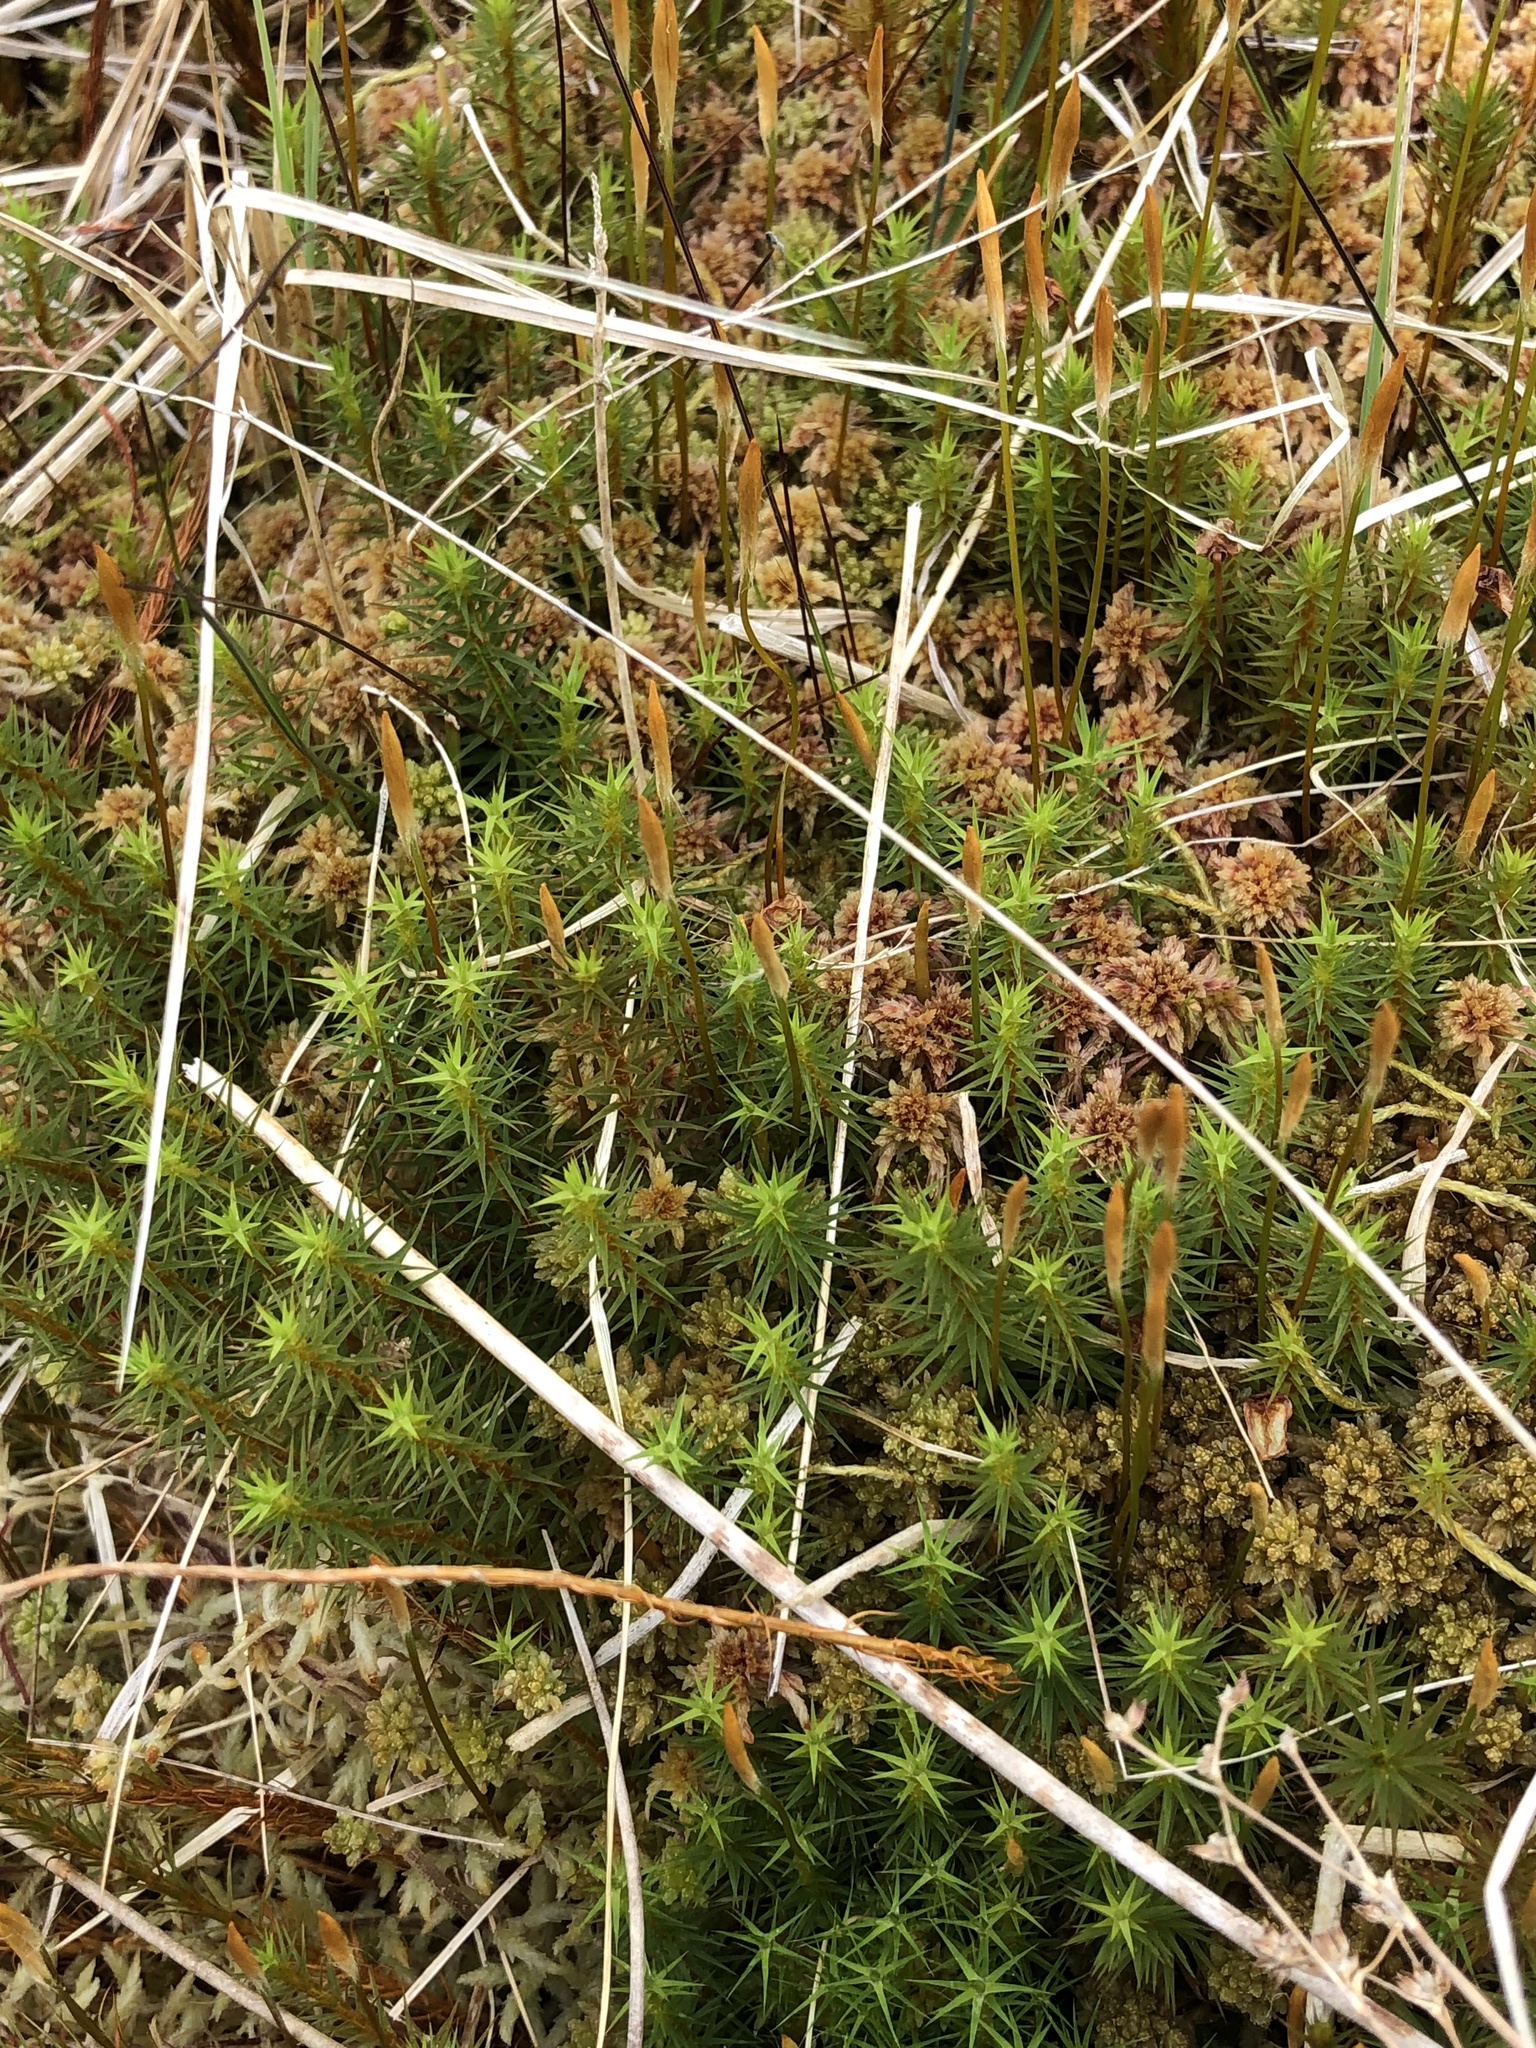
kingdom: Plantae
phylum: Bryophyta
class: Polytrichopsida
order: Polytrichales
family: Polytrichaceae
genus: Polytrichum
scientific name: Polytrichum commune
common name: Common haircap
